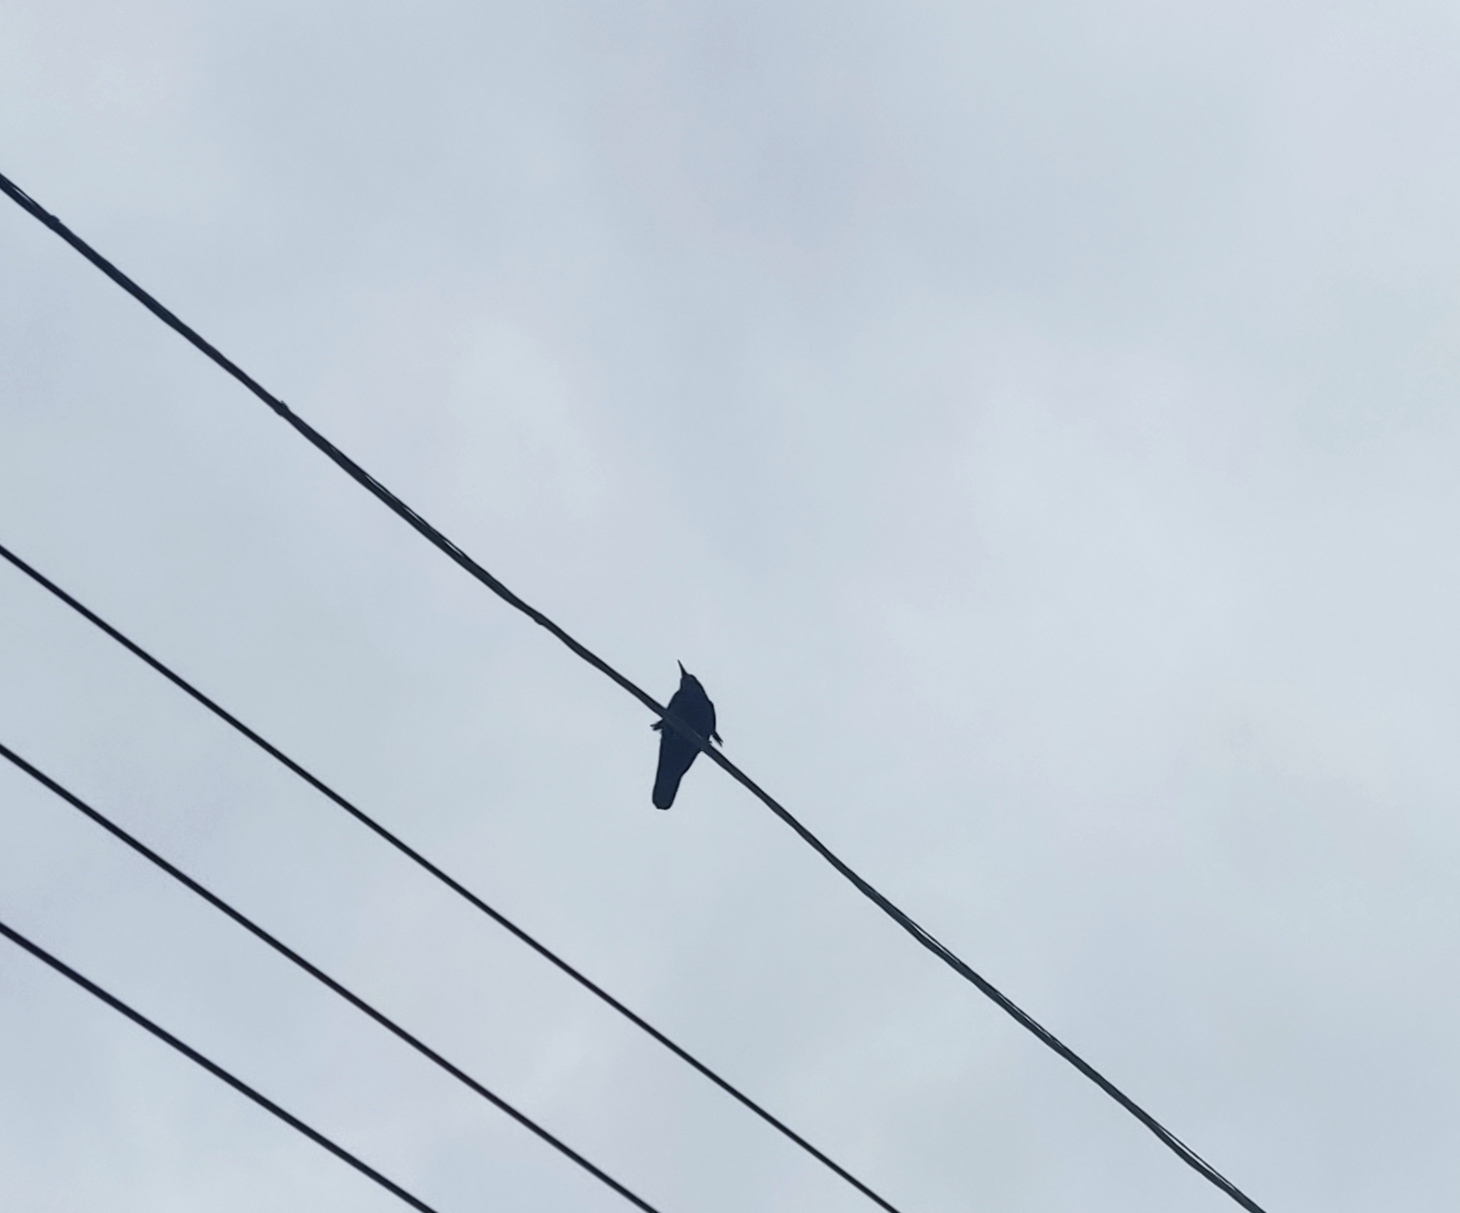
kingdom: Animalia
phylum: Chordata
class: Aves
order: Passeriformes
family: Corvidae
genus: Corvus
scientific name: Corvus frugilegus
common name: Rook
